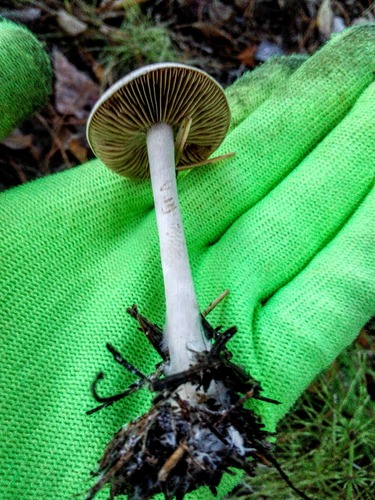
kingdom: Fungi
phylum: Basidiomycota
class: Agaricomycetes
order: Agaricales
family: Hymenogastraceae
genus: Hebeloma
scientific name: Hebeloma
